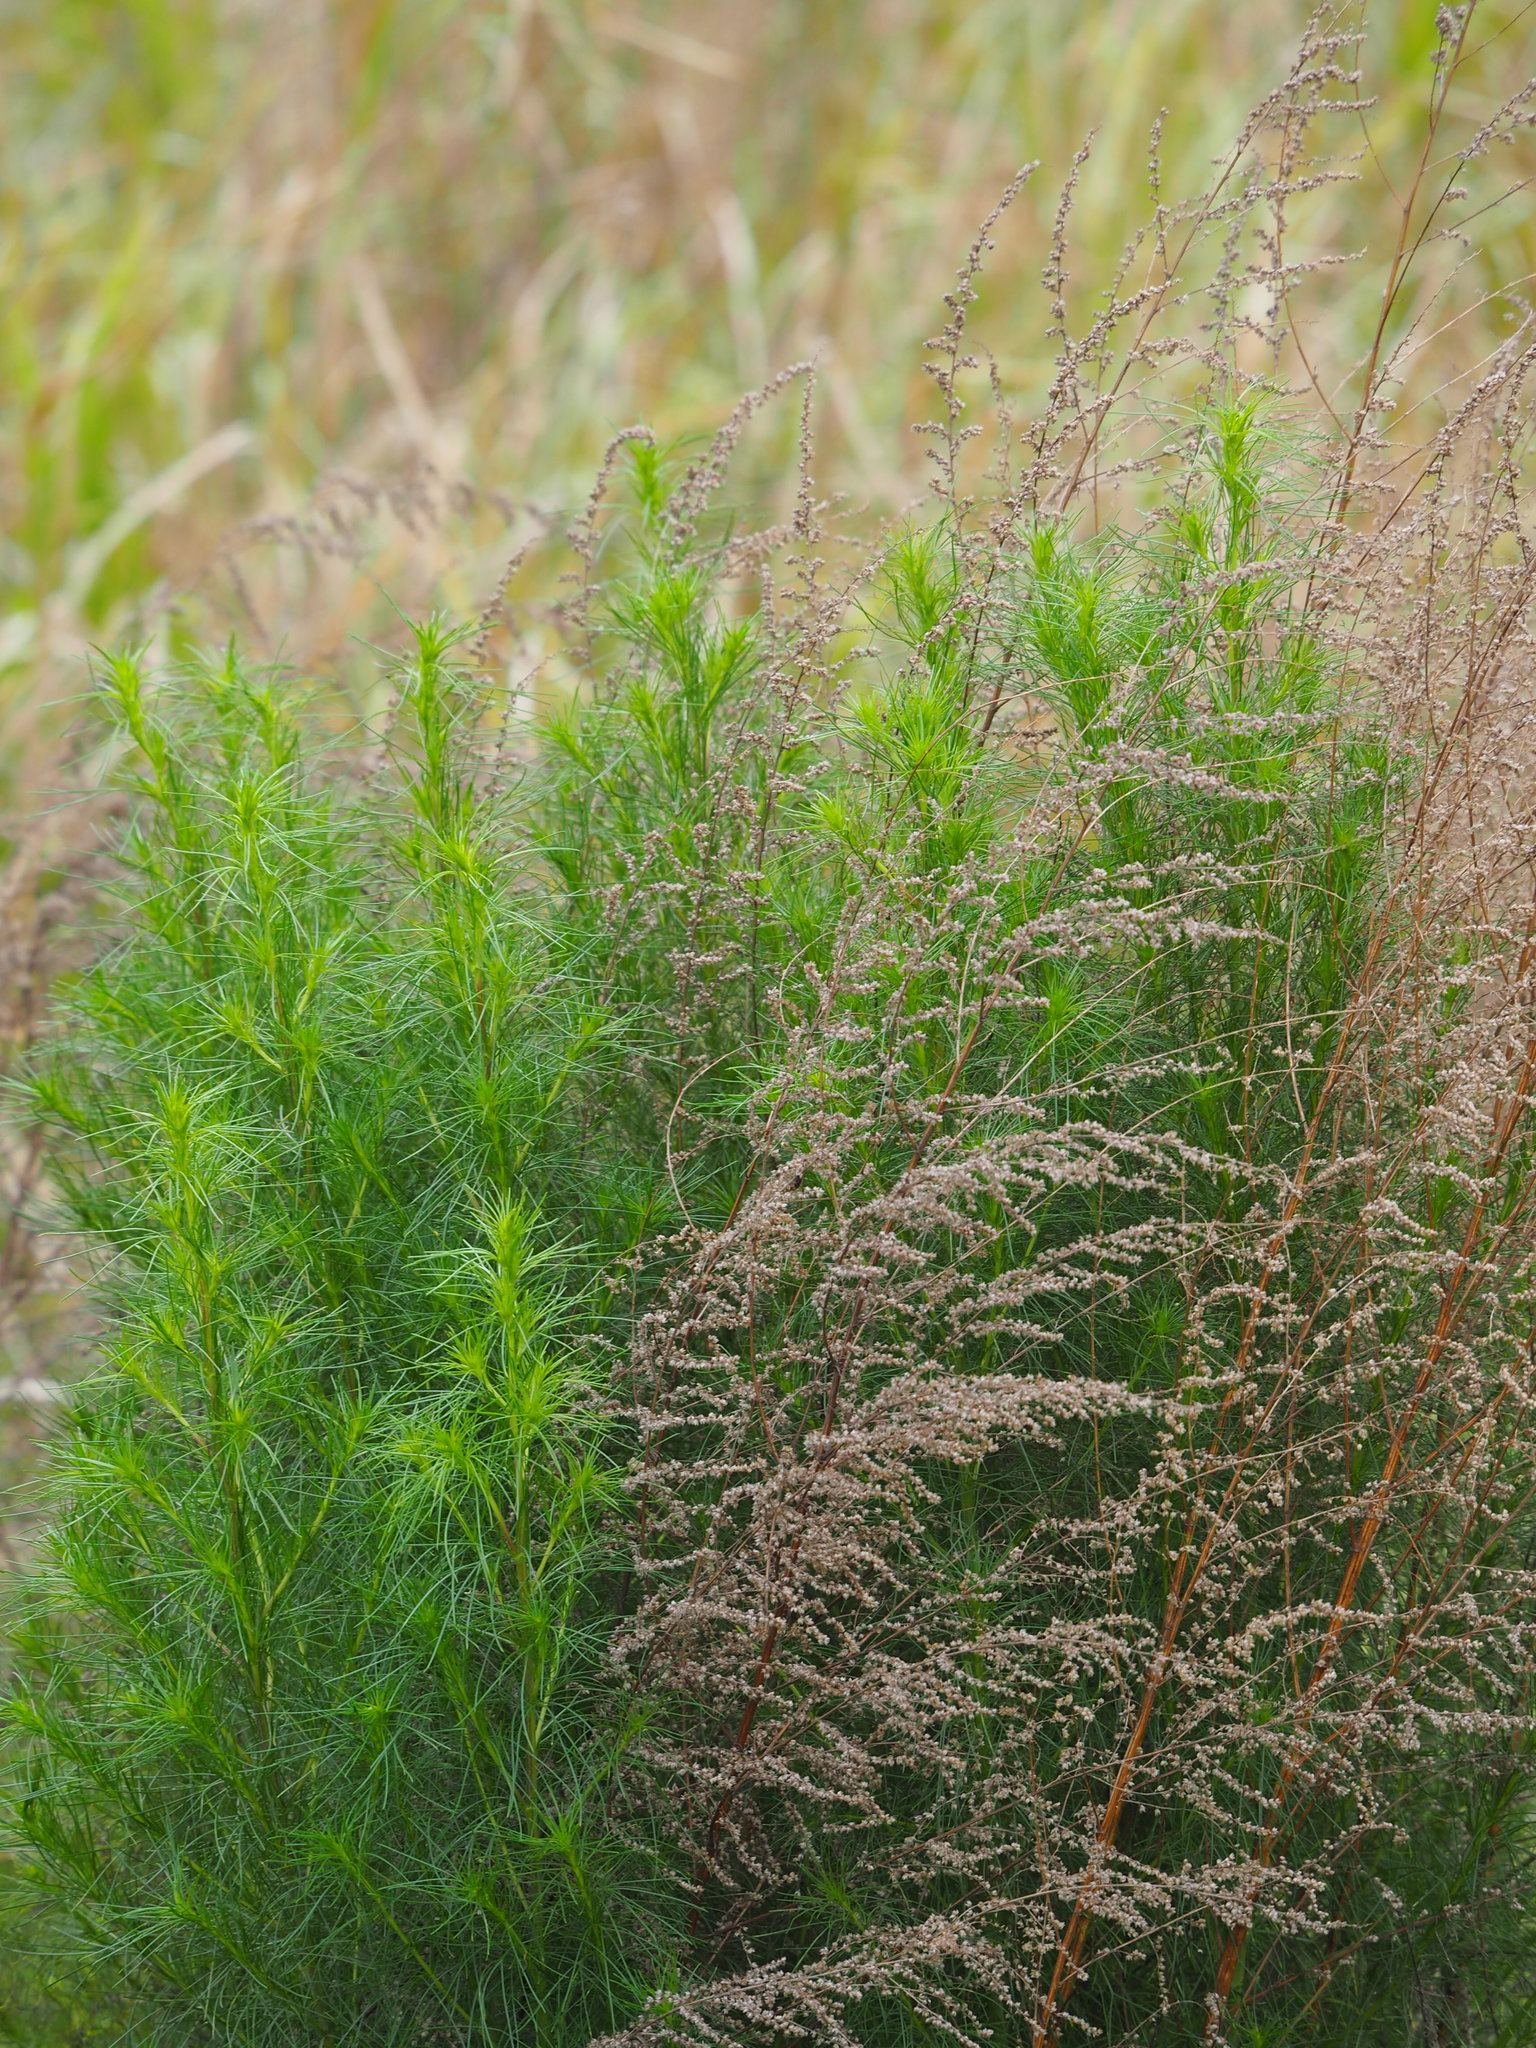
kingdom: Plantae
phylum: Tracheophyta
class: Magnoliopsida
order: Asterales
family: Asteraceae
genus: Artemisia
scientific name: Artemisia capillaris
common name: Yin-chen wormwood
